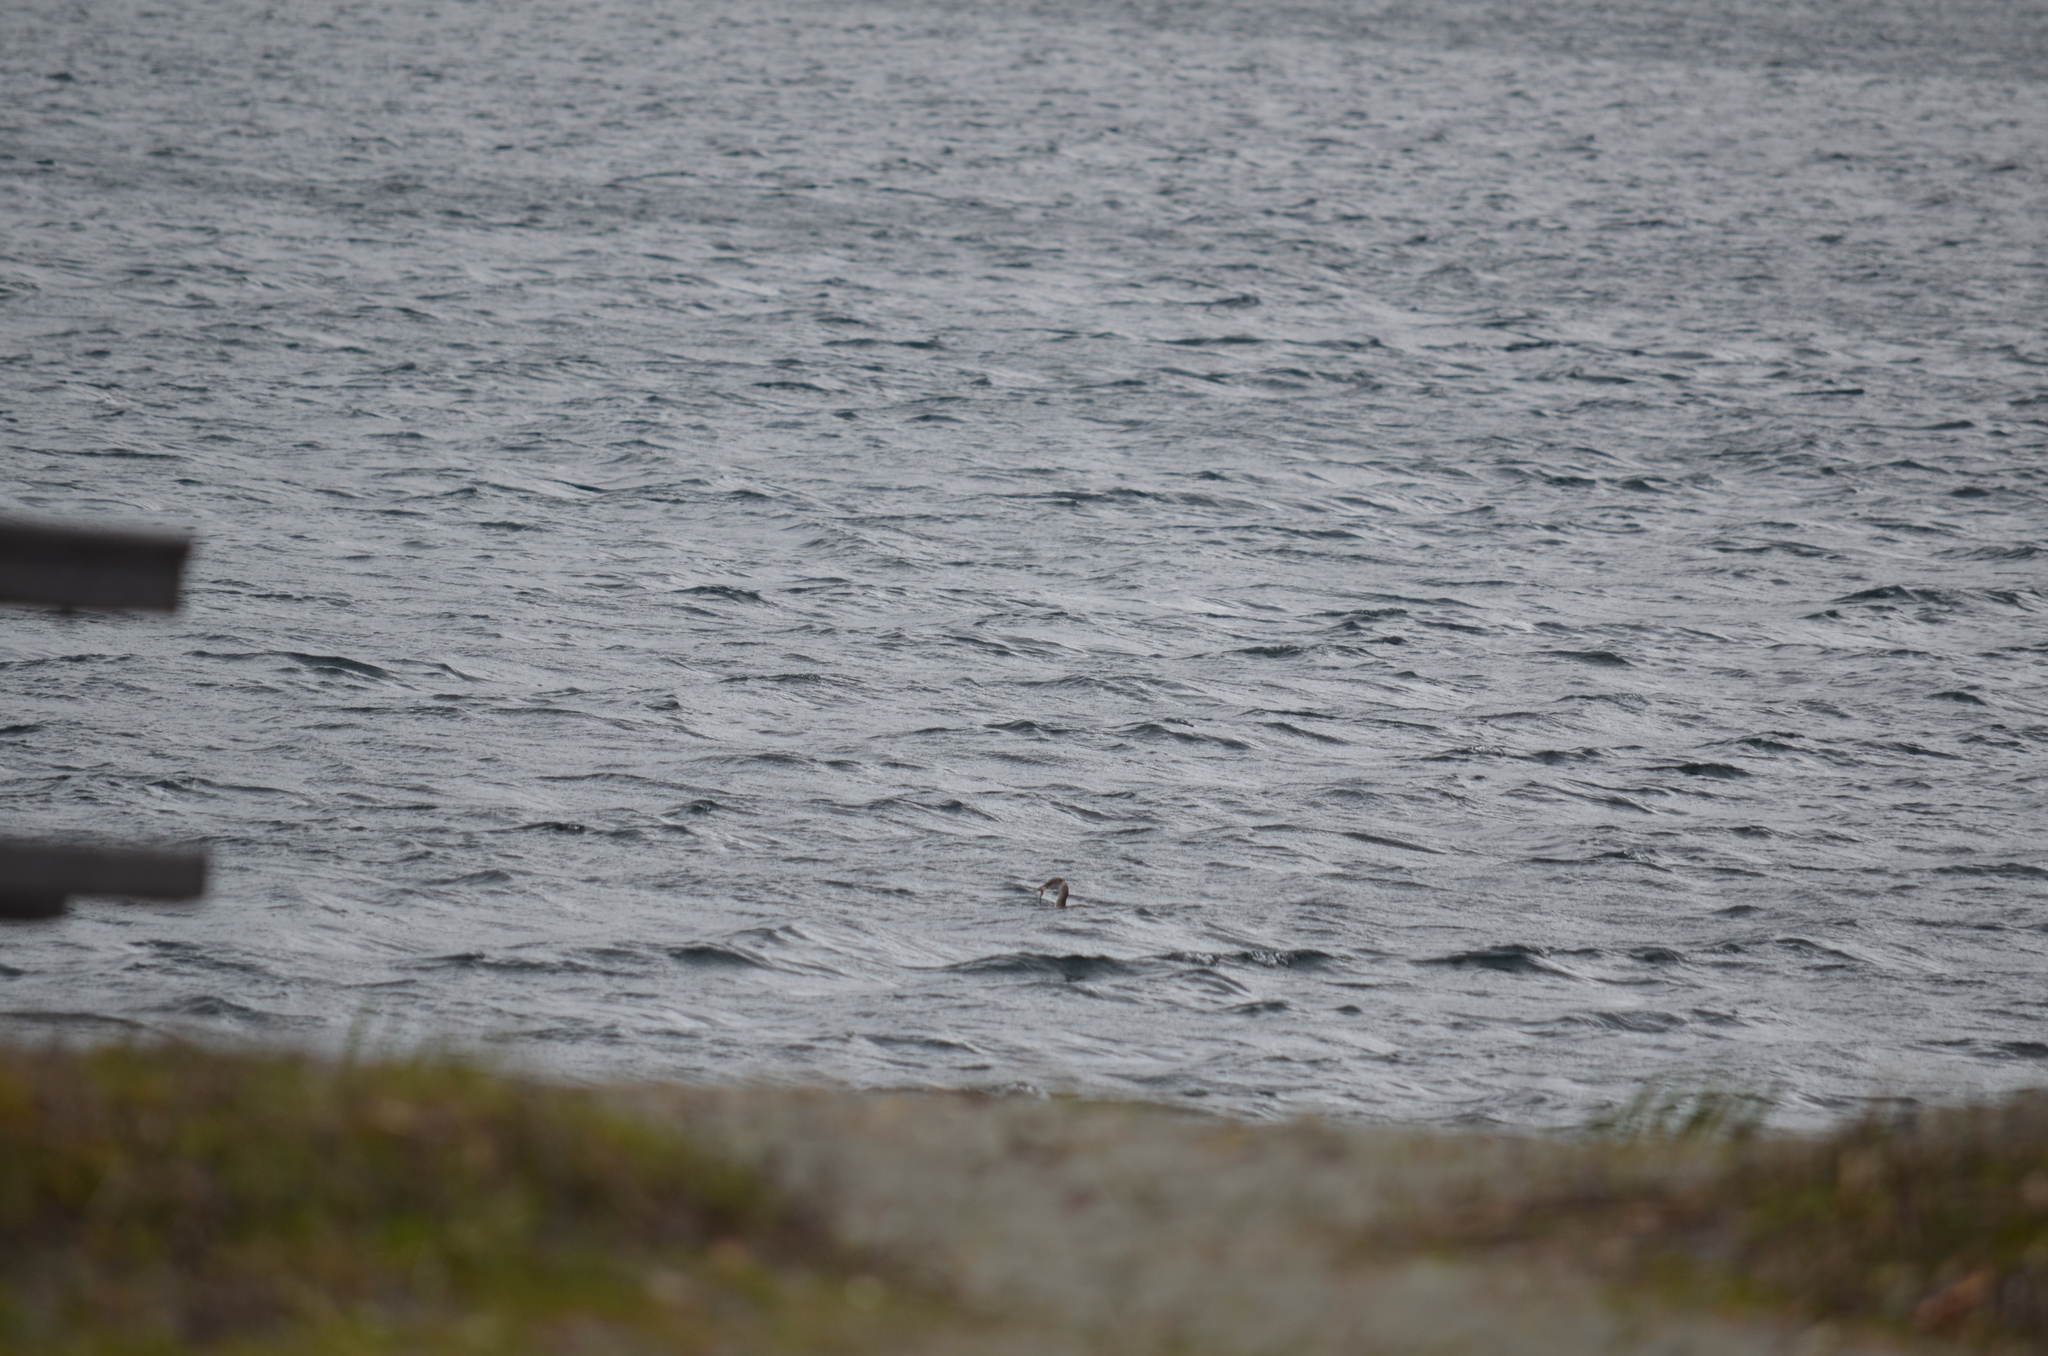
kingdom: Animalia
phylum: Chordata
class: Aves
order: Podicipediformes
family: Podicipedidae
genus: Podiceps
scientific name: Podiceps grisegena
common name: Red-necked grebe
